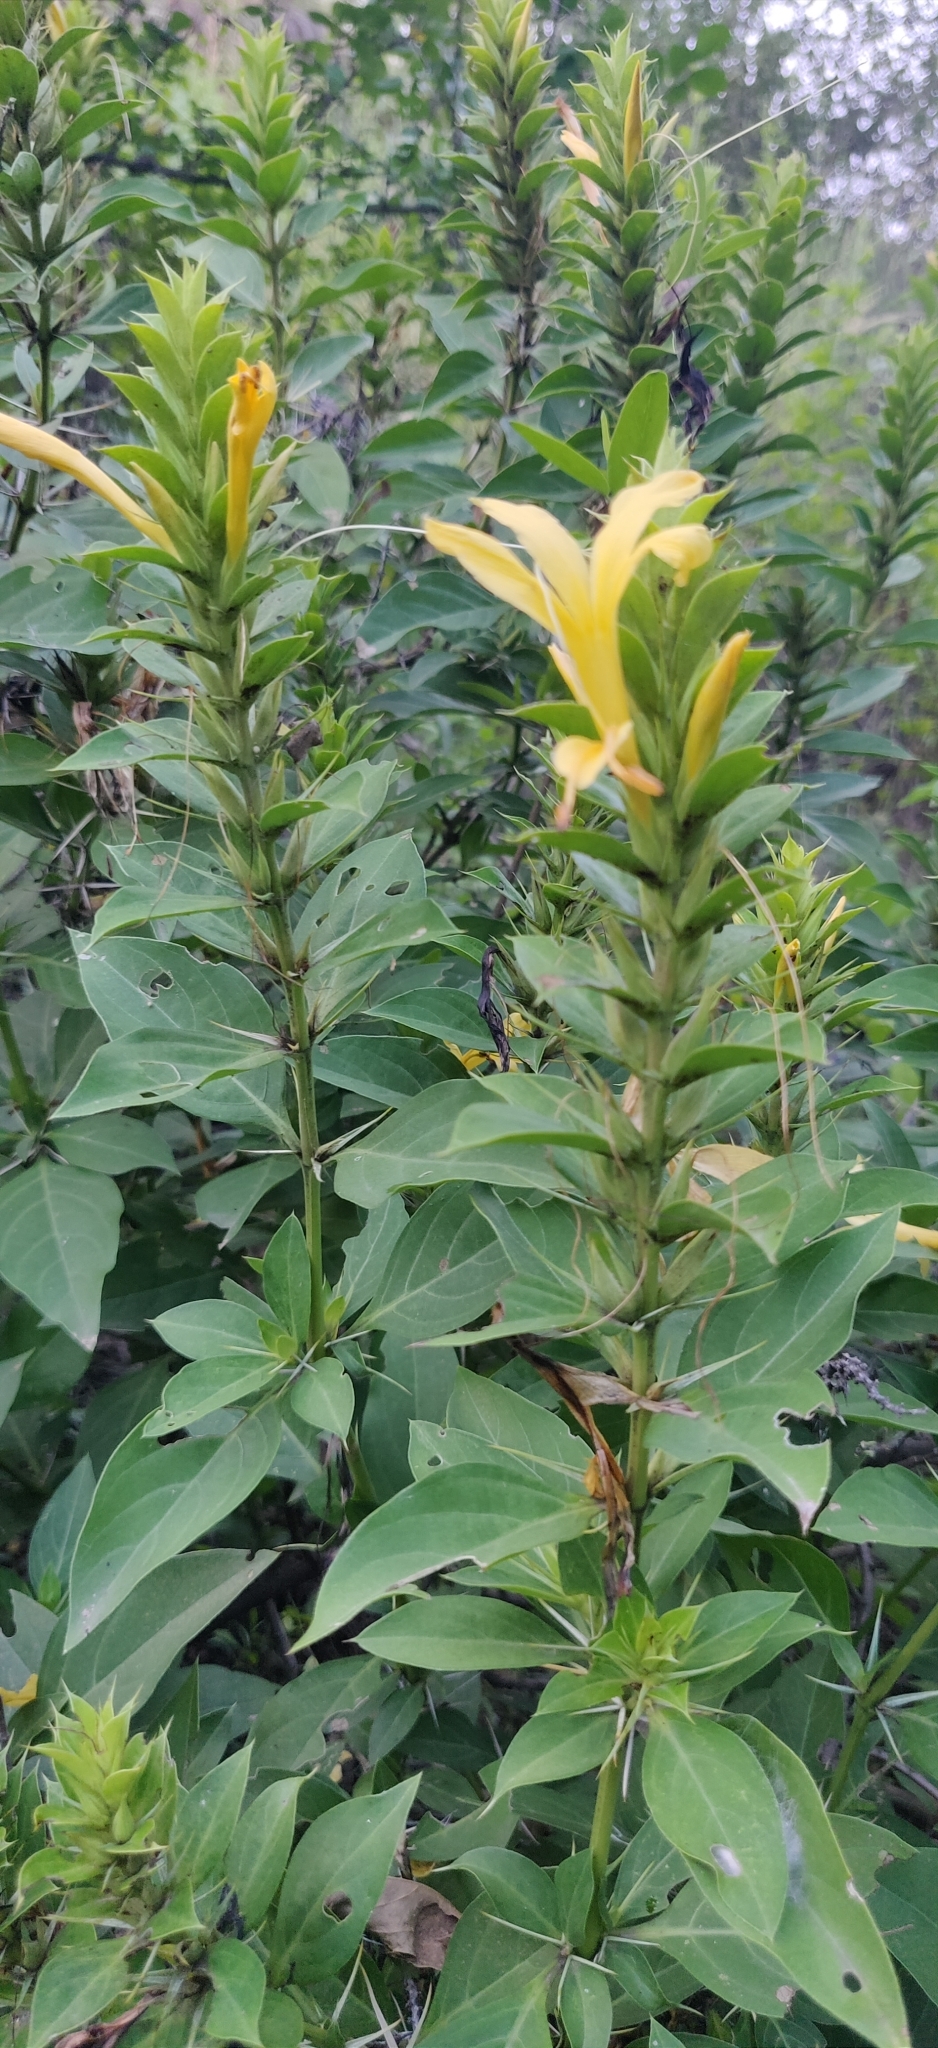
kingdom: Plantae
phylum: Tracheophyta
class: Magnoliopsida
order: Lamiales
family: Acanthaceae
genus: Barleria
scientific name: Barleria prionitis
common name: Barleria
